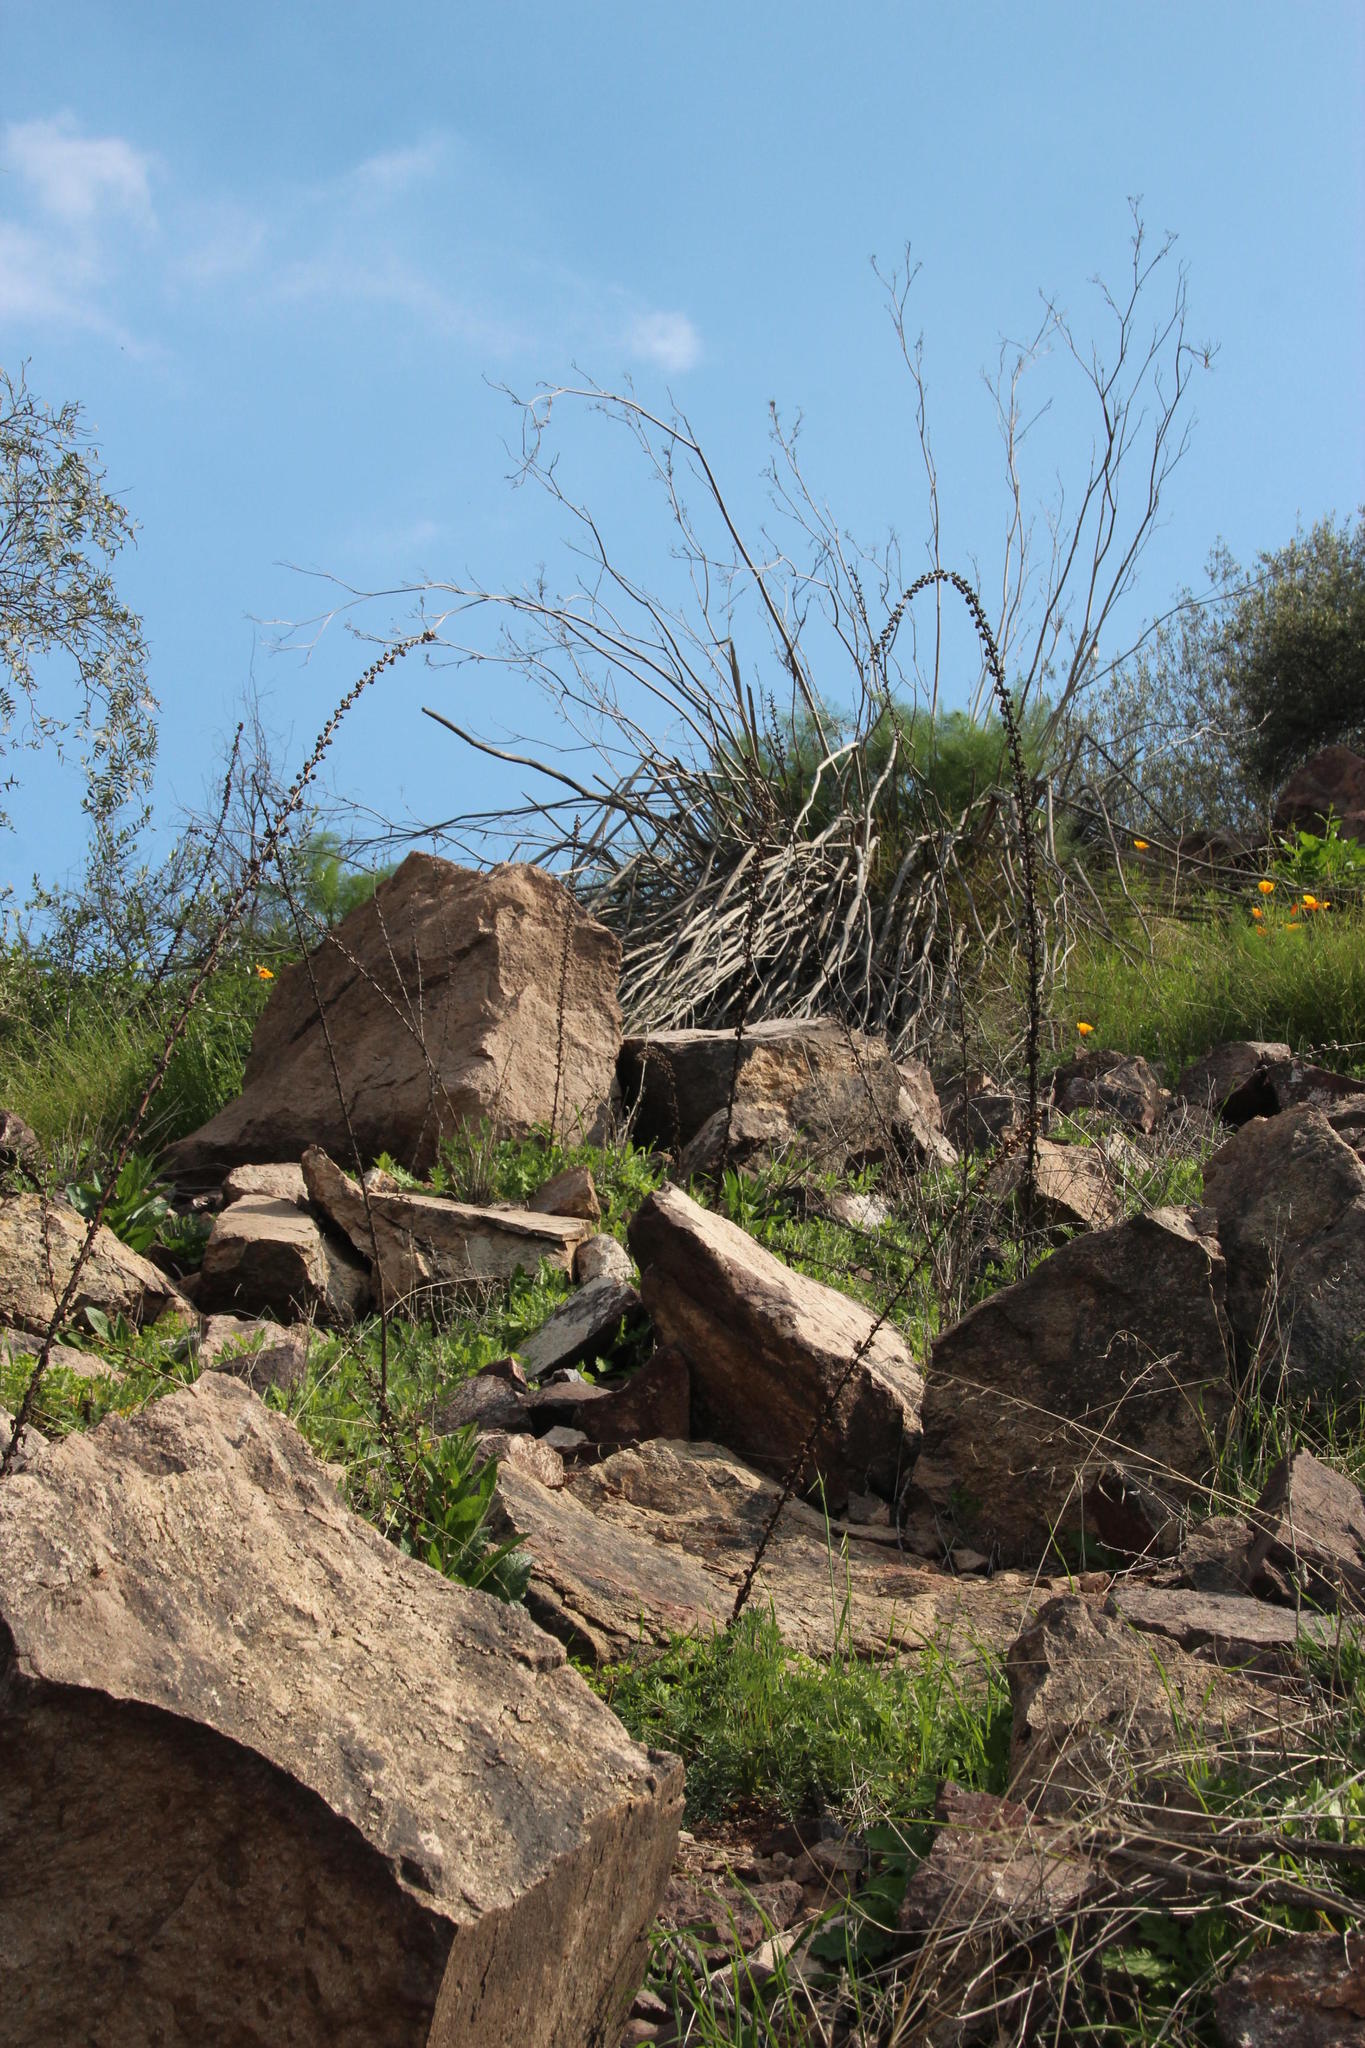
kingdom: Plantae
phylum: Tracheophyta
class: Magnoliopsida
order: Lamiales
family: Scrophulariaceae
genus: Verbascum
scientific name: Verbascum virgatum
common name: Twiggy mullein
